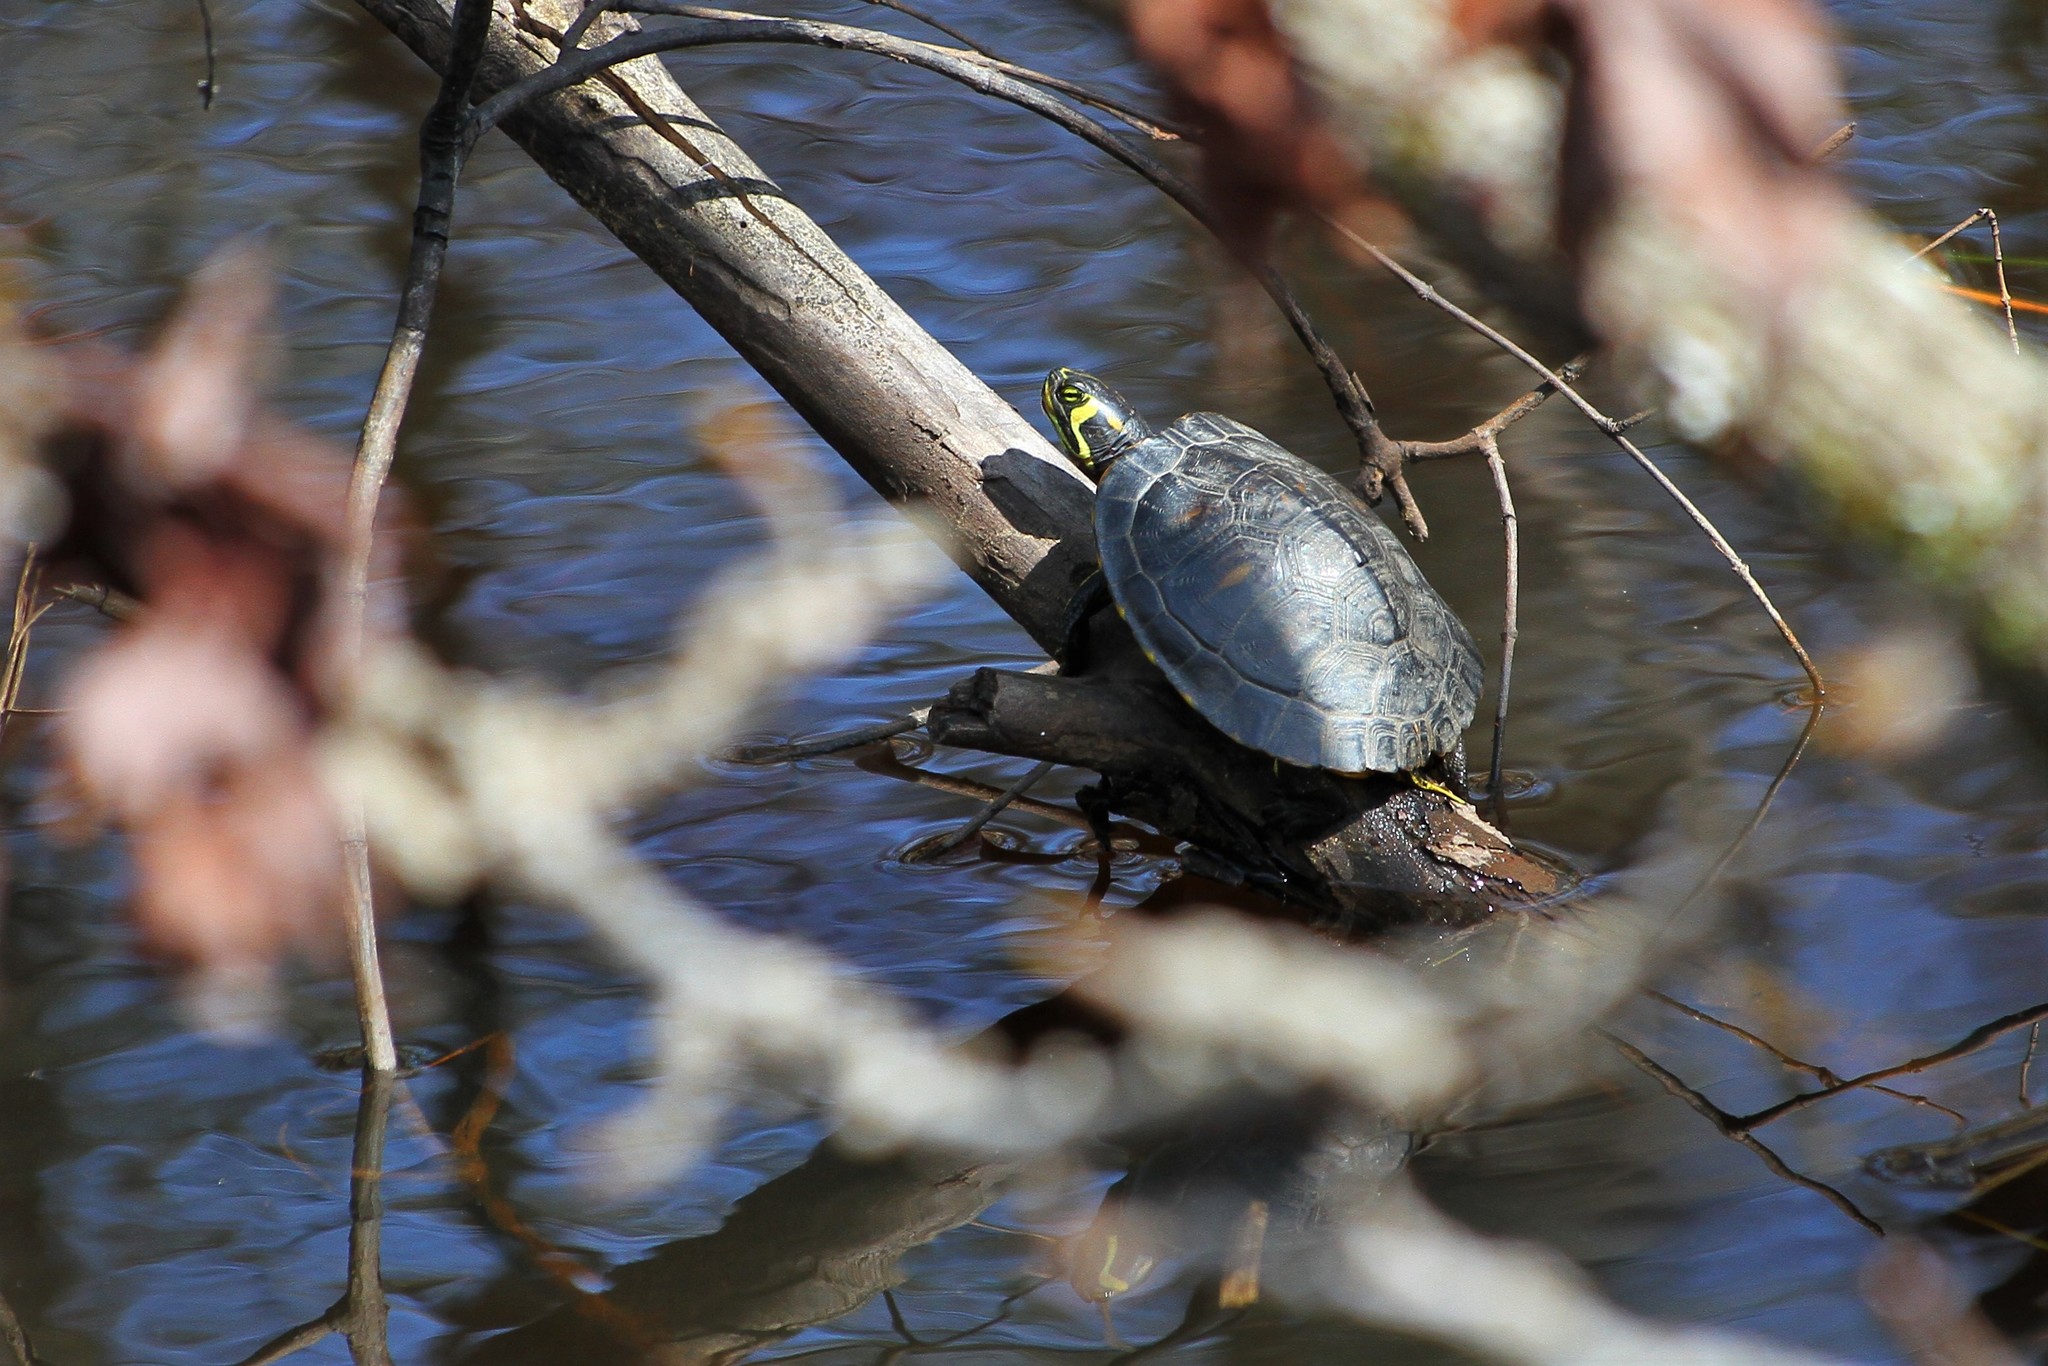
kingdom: Animalia
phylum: Chordata
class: Testudines
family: Emydidae
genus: Trachemys
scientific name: Trachemys scripta
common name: Slider
